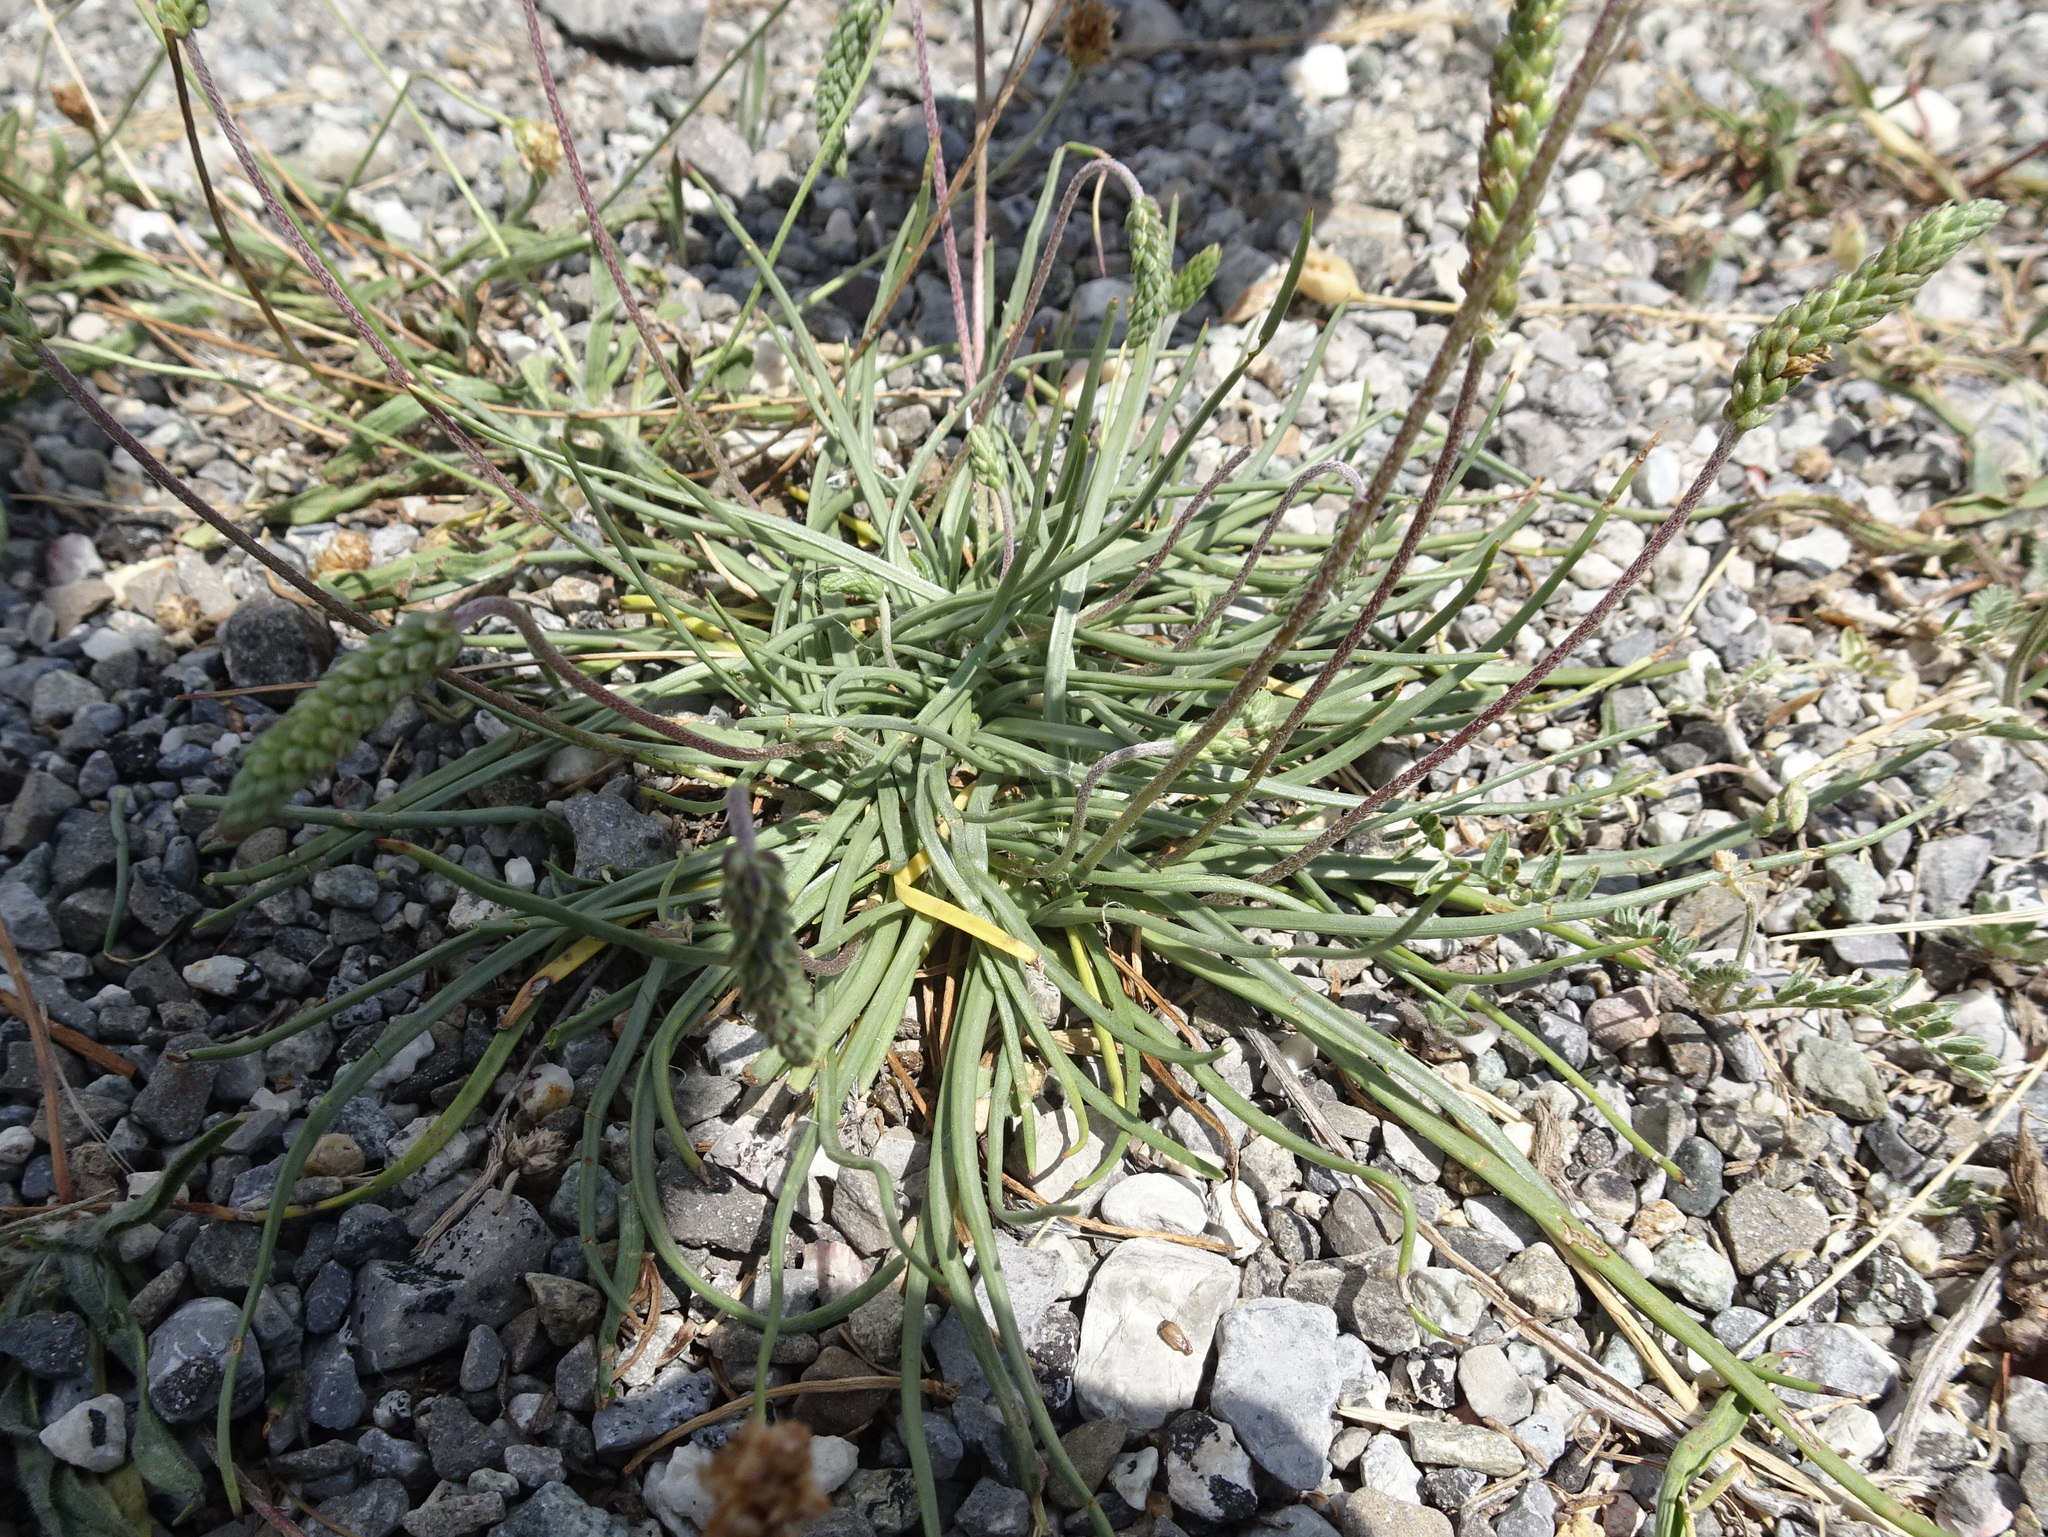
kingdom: Plantae
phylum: Tracheophyta
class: Magnoliopsida
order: Lamiales
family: Plantaginaceae
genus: Plantago
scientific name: Plantago maritima
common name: Sea plantain
